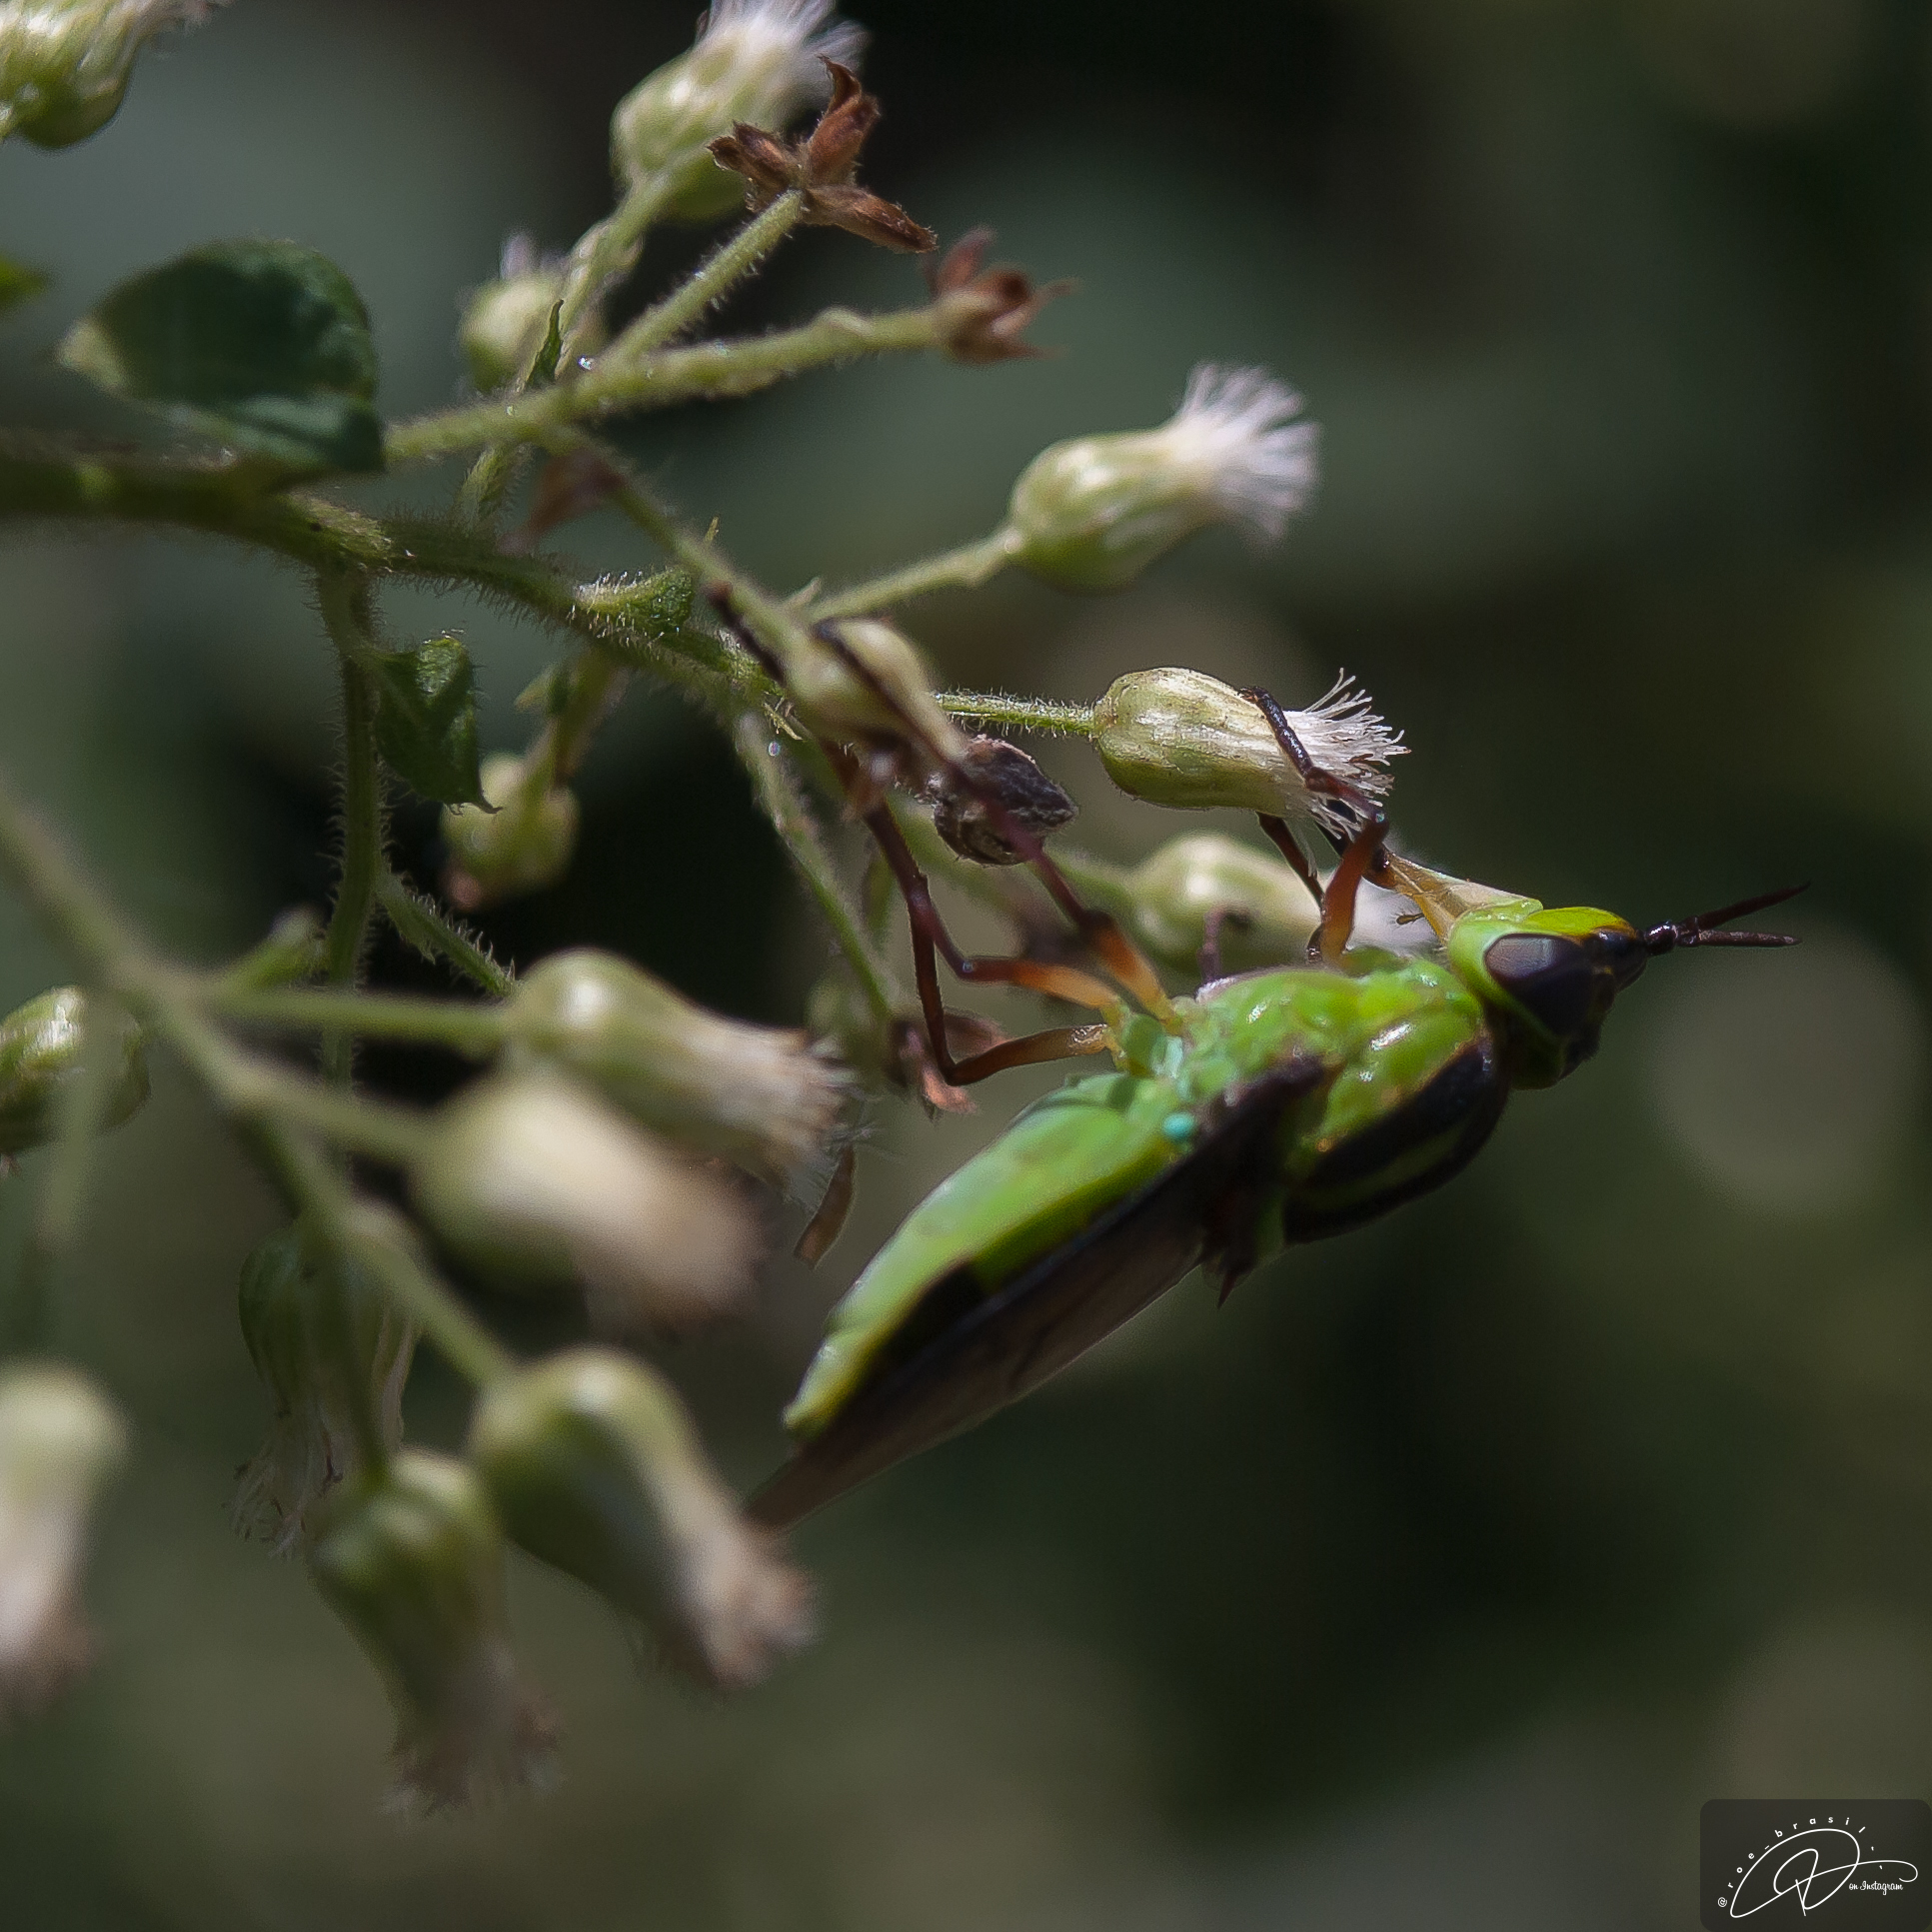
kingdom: Animalia
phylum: Arthropoda
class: Insecta
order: Diptera
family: Stratiomyidae
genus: Hedriodiscus
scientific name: Hedriodiscus pulcher
